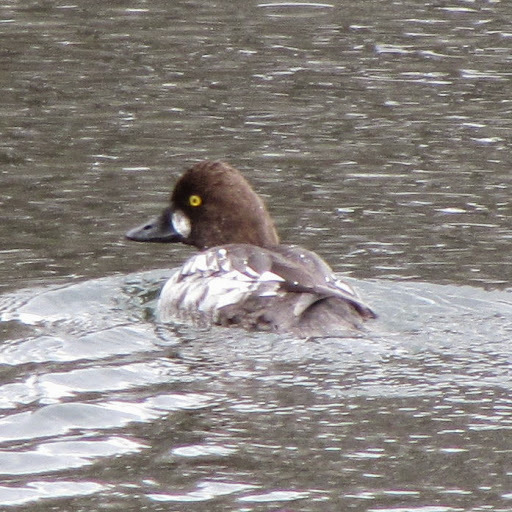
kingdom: Animalia
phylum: Chordata
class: Aves
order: Anseriformes
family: Anatidae
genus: Bucephala
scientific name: Bucephala clangula
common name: Common goldeneye
